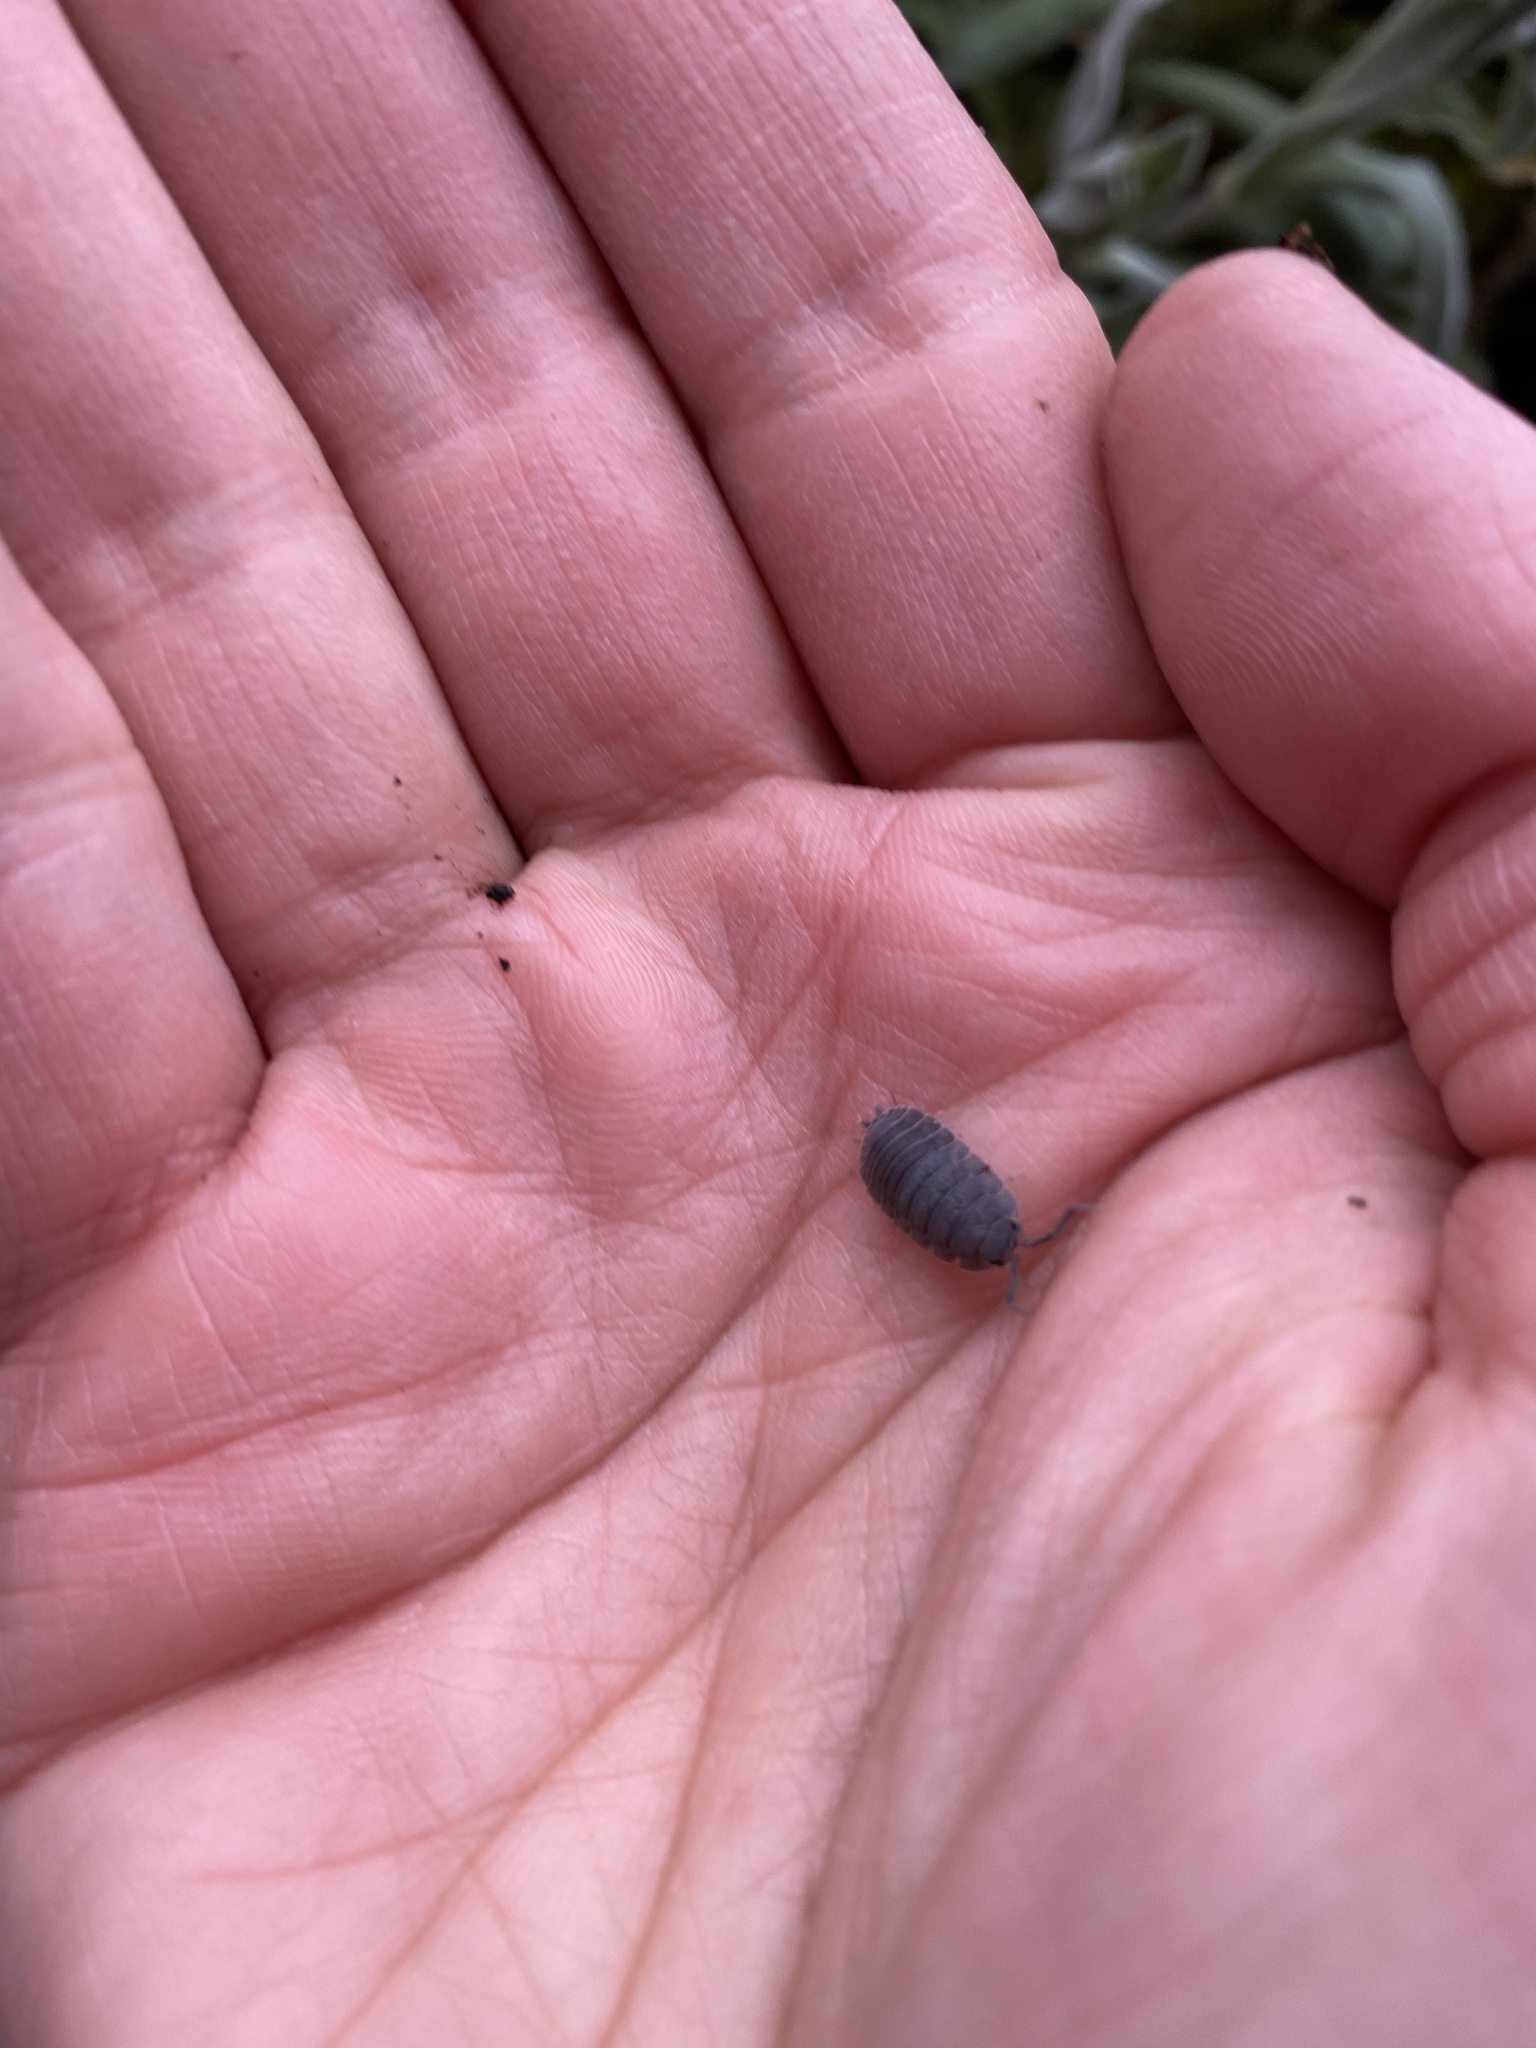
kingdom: Animalia
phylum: Arthropoda
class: Malacostraca
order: Isopoda
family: Porcellionidae
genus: Porcellio
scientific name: Porcellio scaber
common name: Common rough woodlouse
